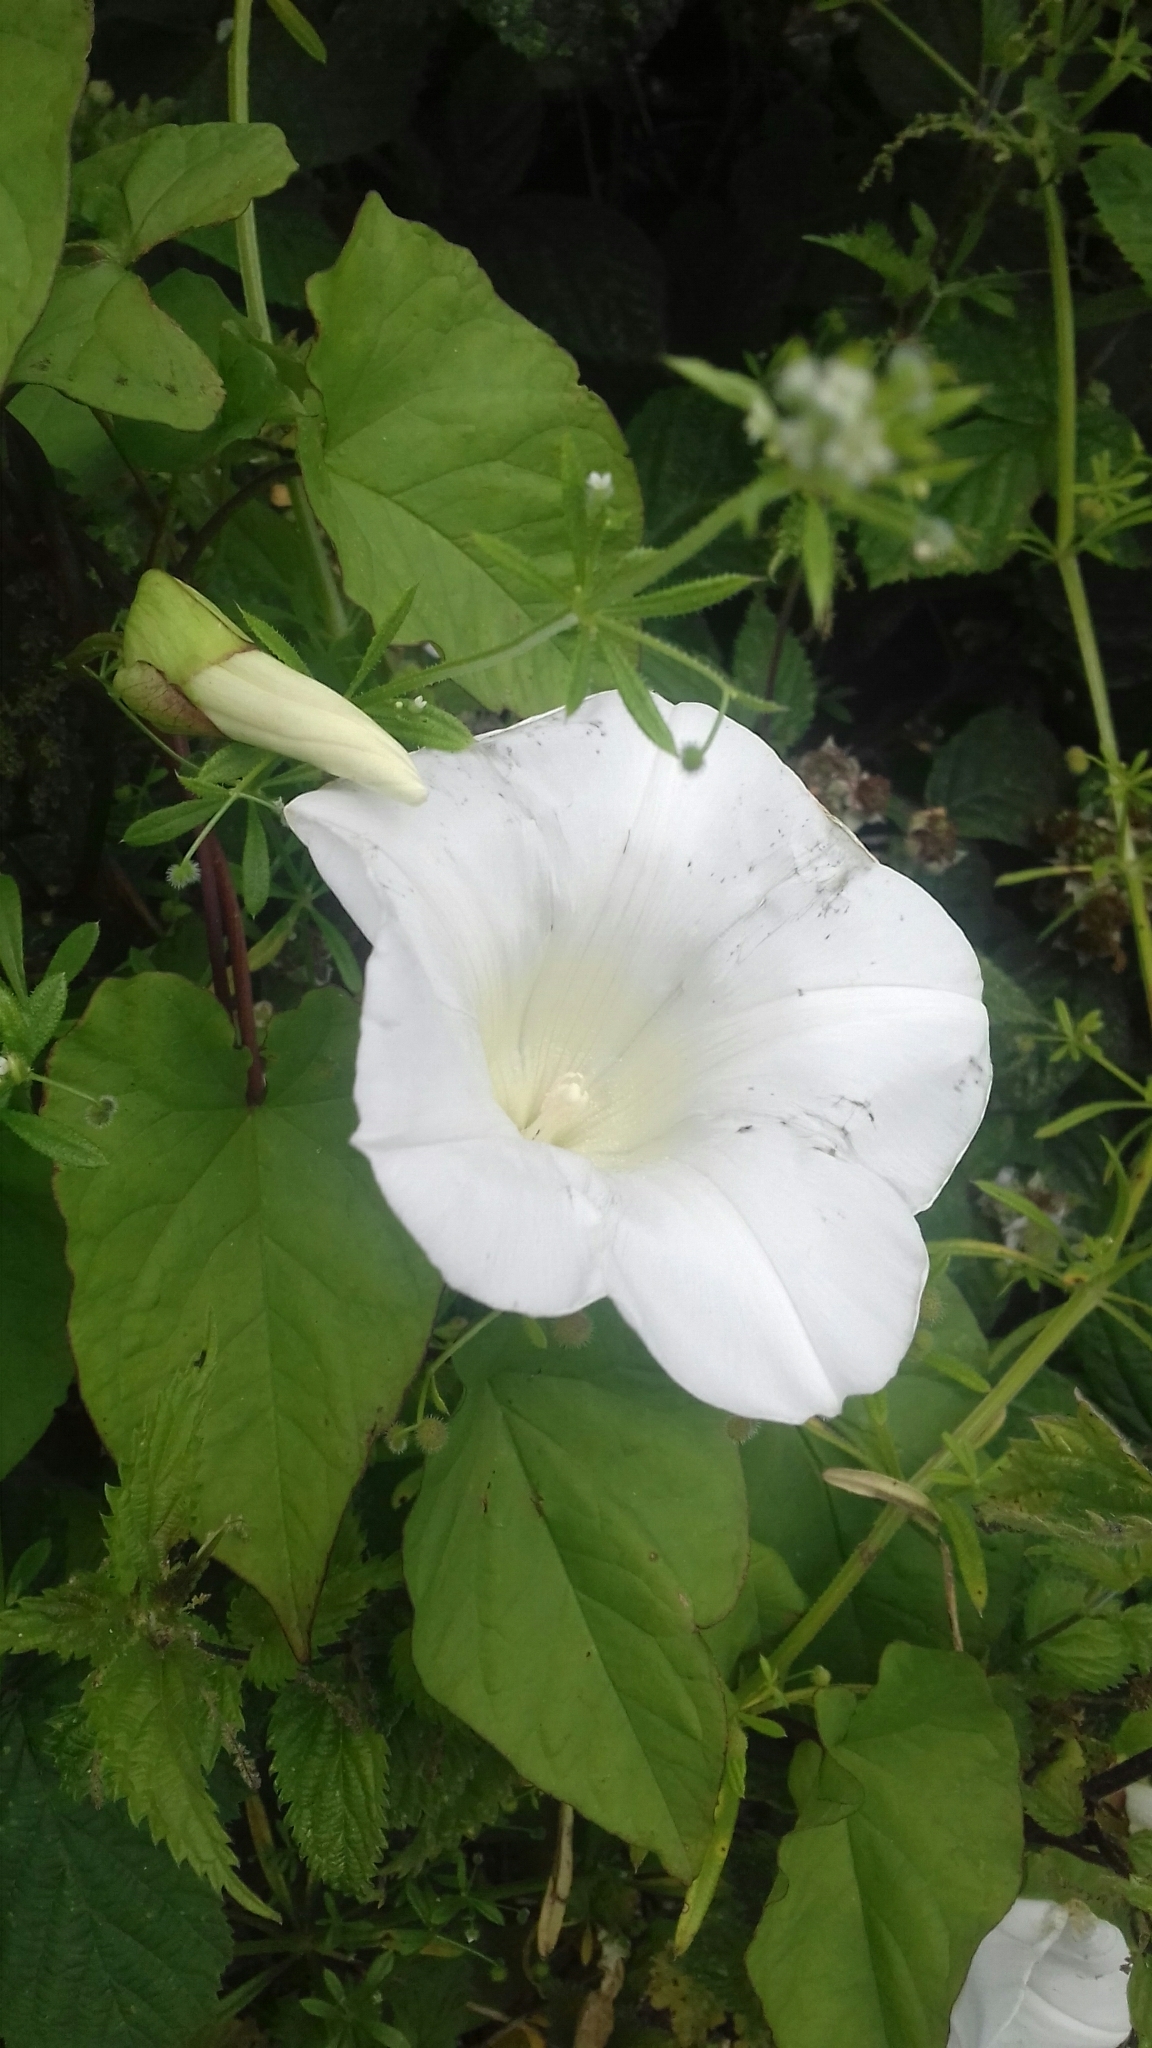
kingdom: Plantae
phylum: Tracheophyta
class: Magnoliopsida
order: Solanales
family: Convolvulaceae
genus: Calystegia
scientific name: Calystegia silvatica
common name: Large bindweed
